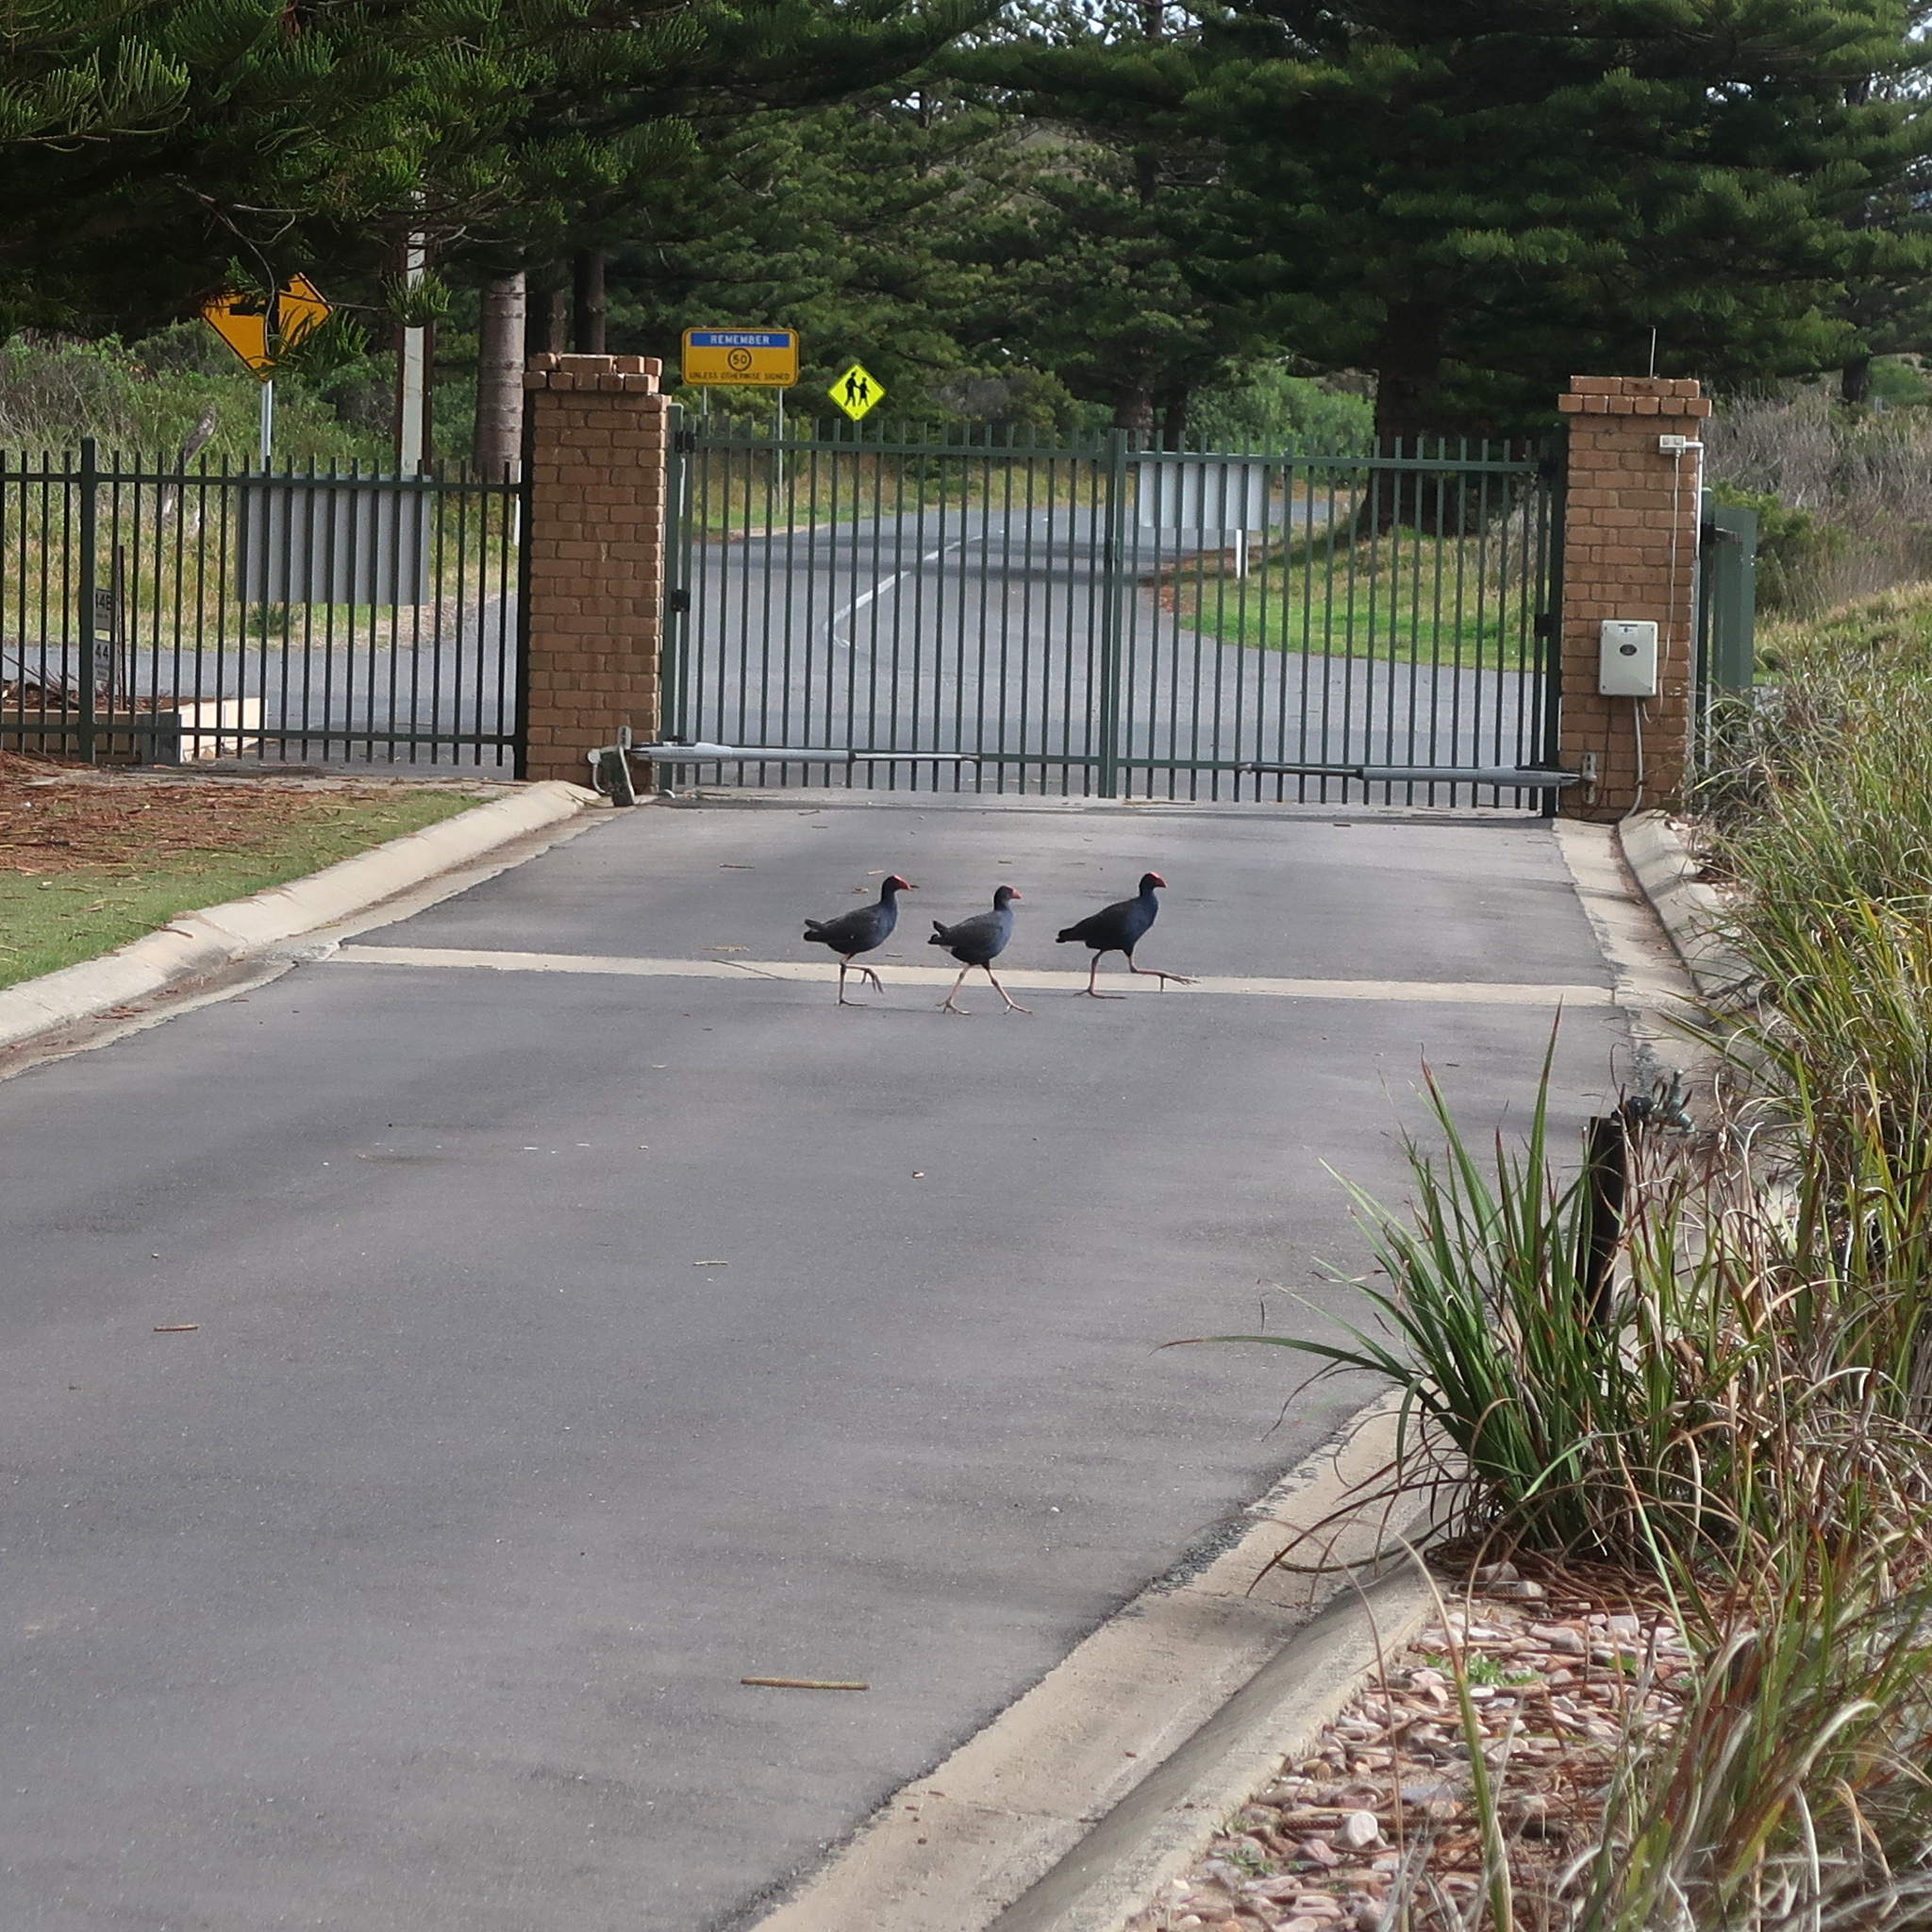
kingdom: Animalia
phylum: Chordata
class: Aves
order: Gruiformes
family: Rallidae
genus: Porphyrio
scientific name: Porphyrio melanotus
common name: Australasian swamphen
